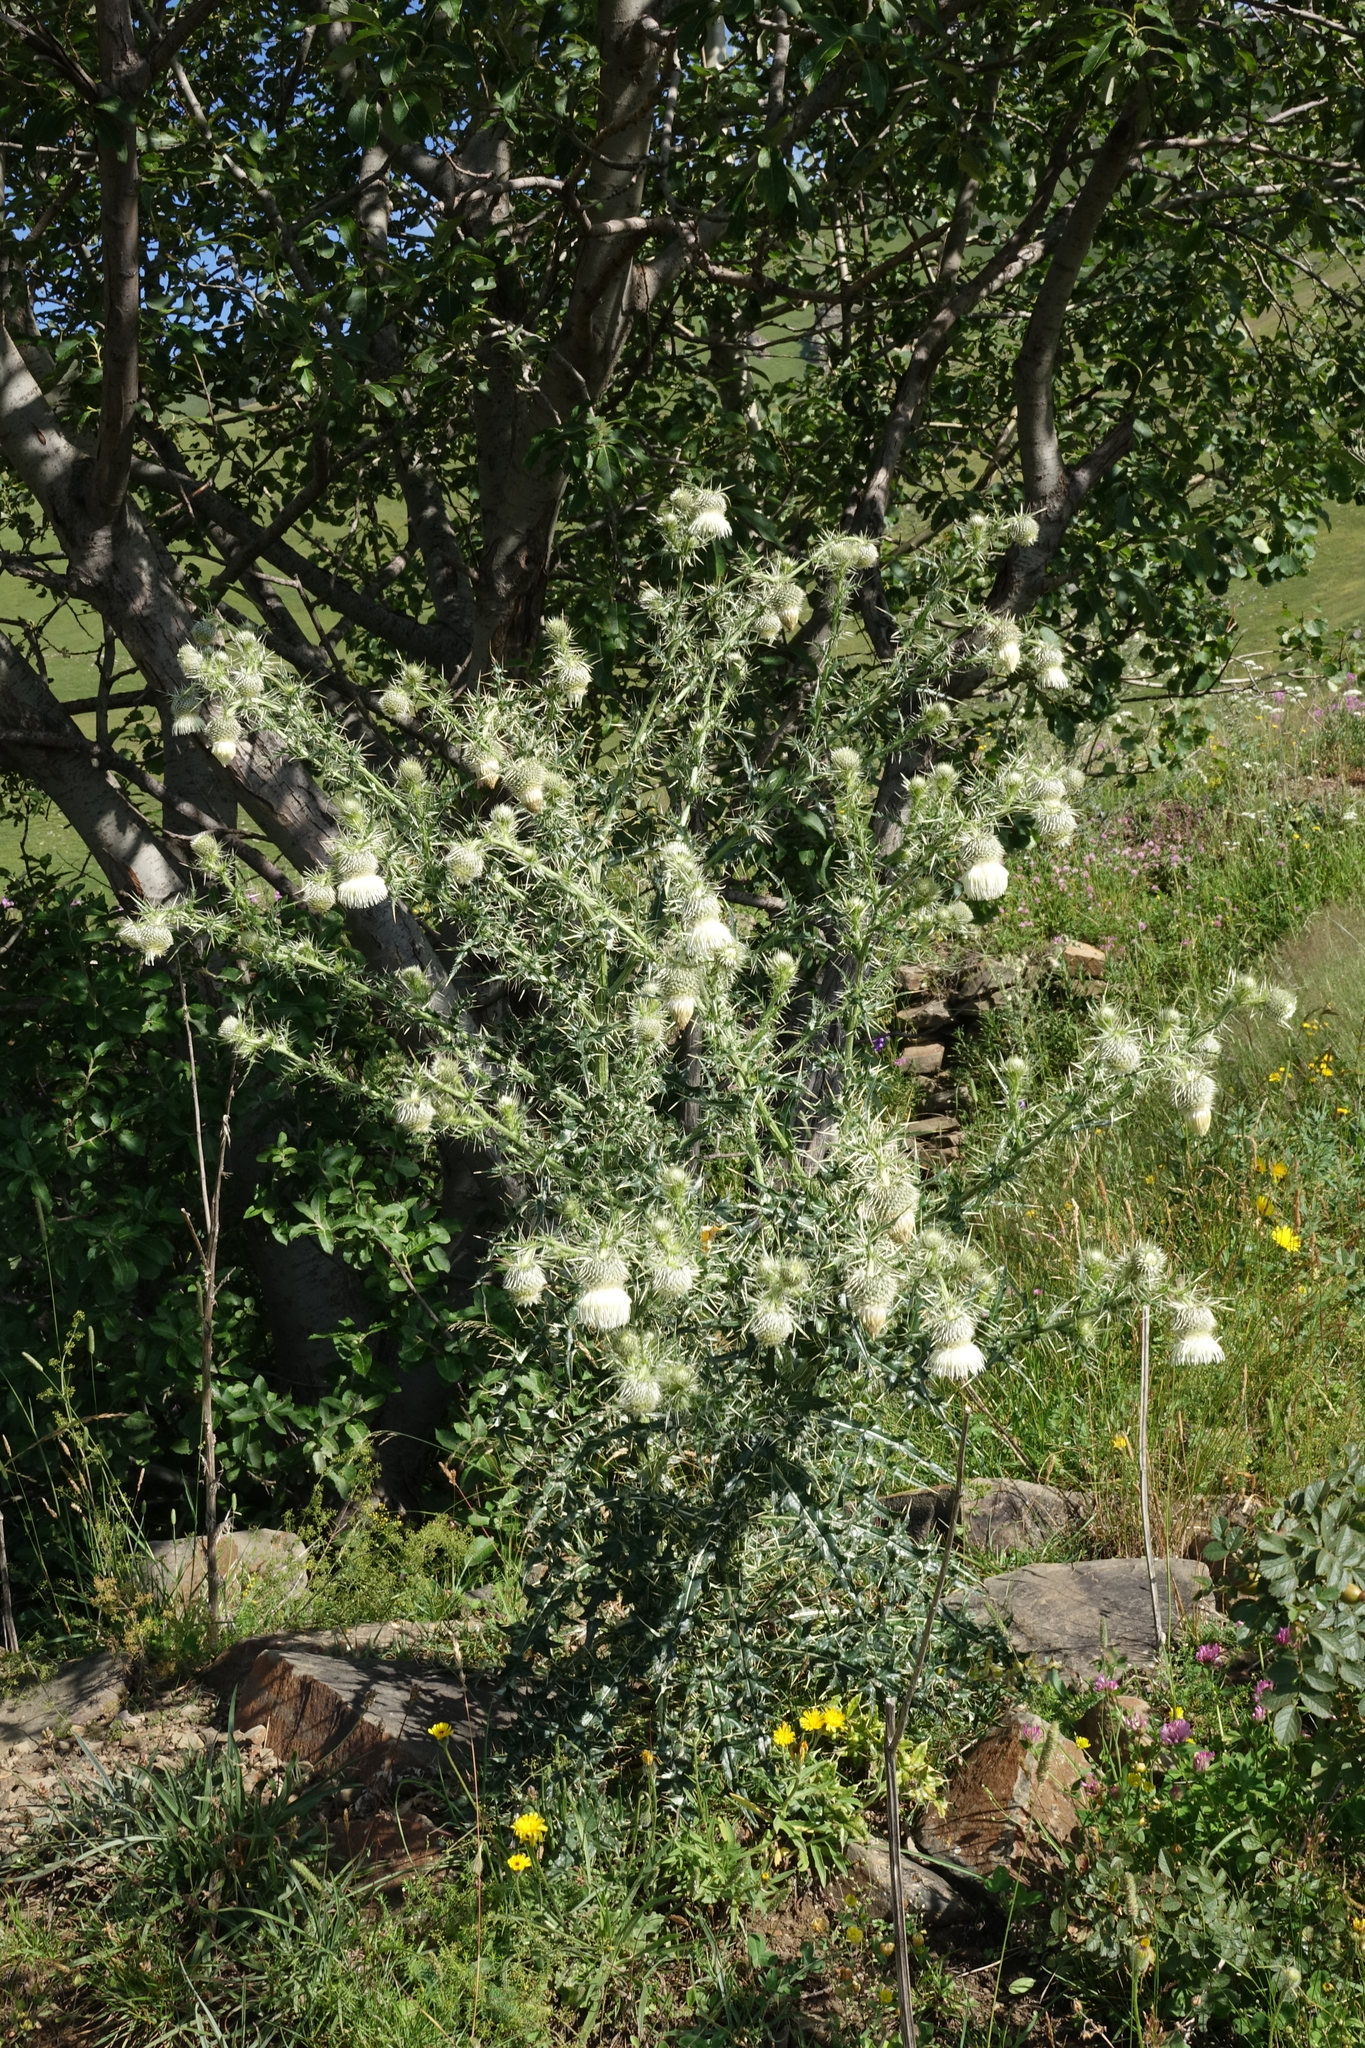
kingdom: Plantae
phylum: Tracheophyta
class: Magnoliopsida
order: Asterales
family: Asteraceae
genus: Cirsium
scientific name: Cirsium echinus
